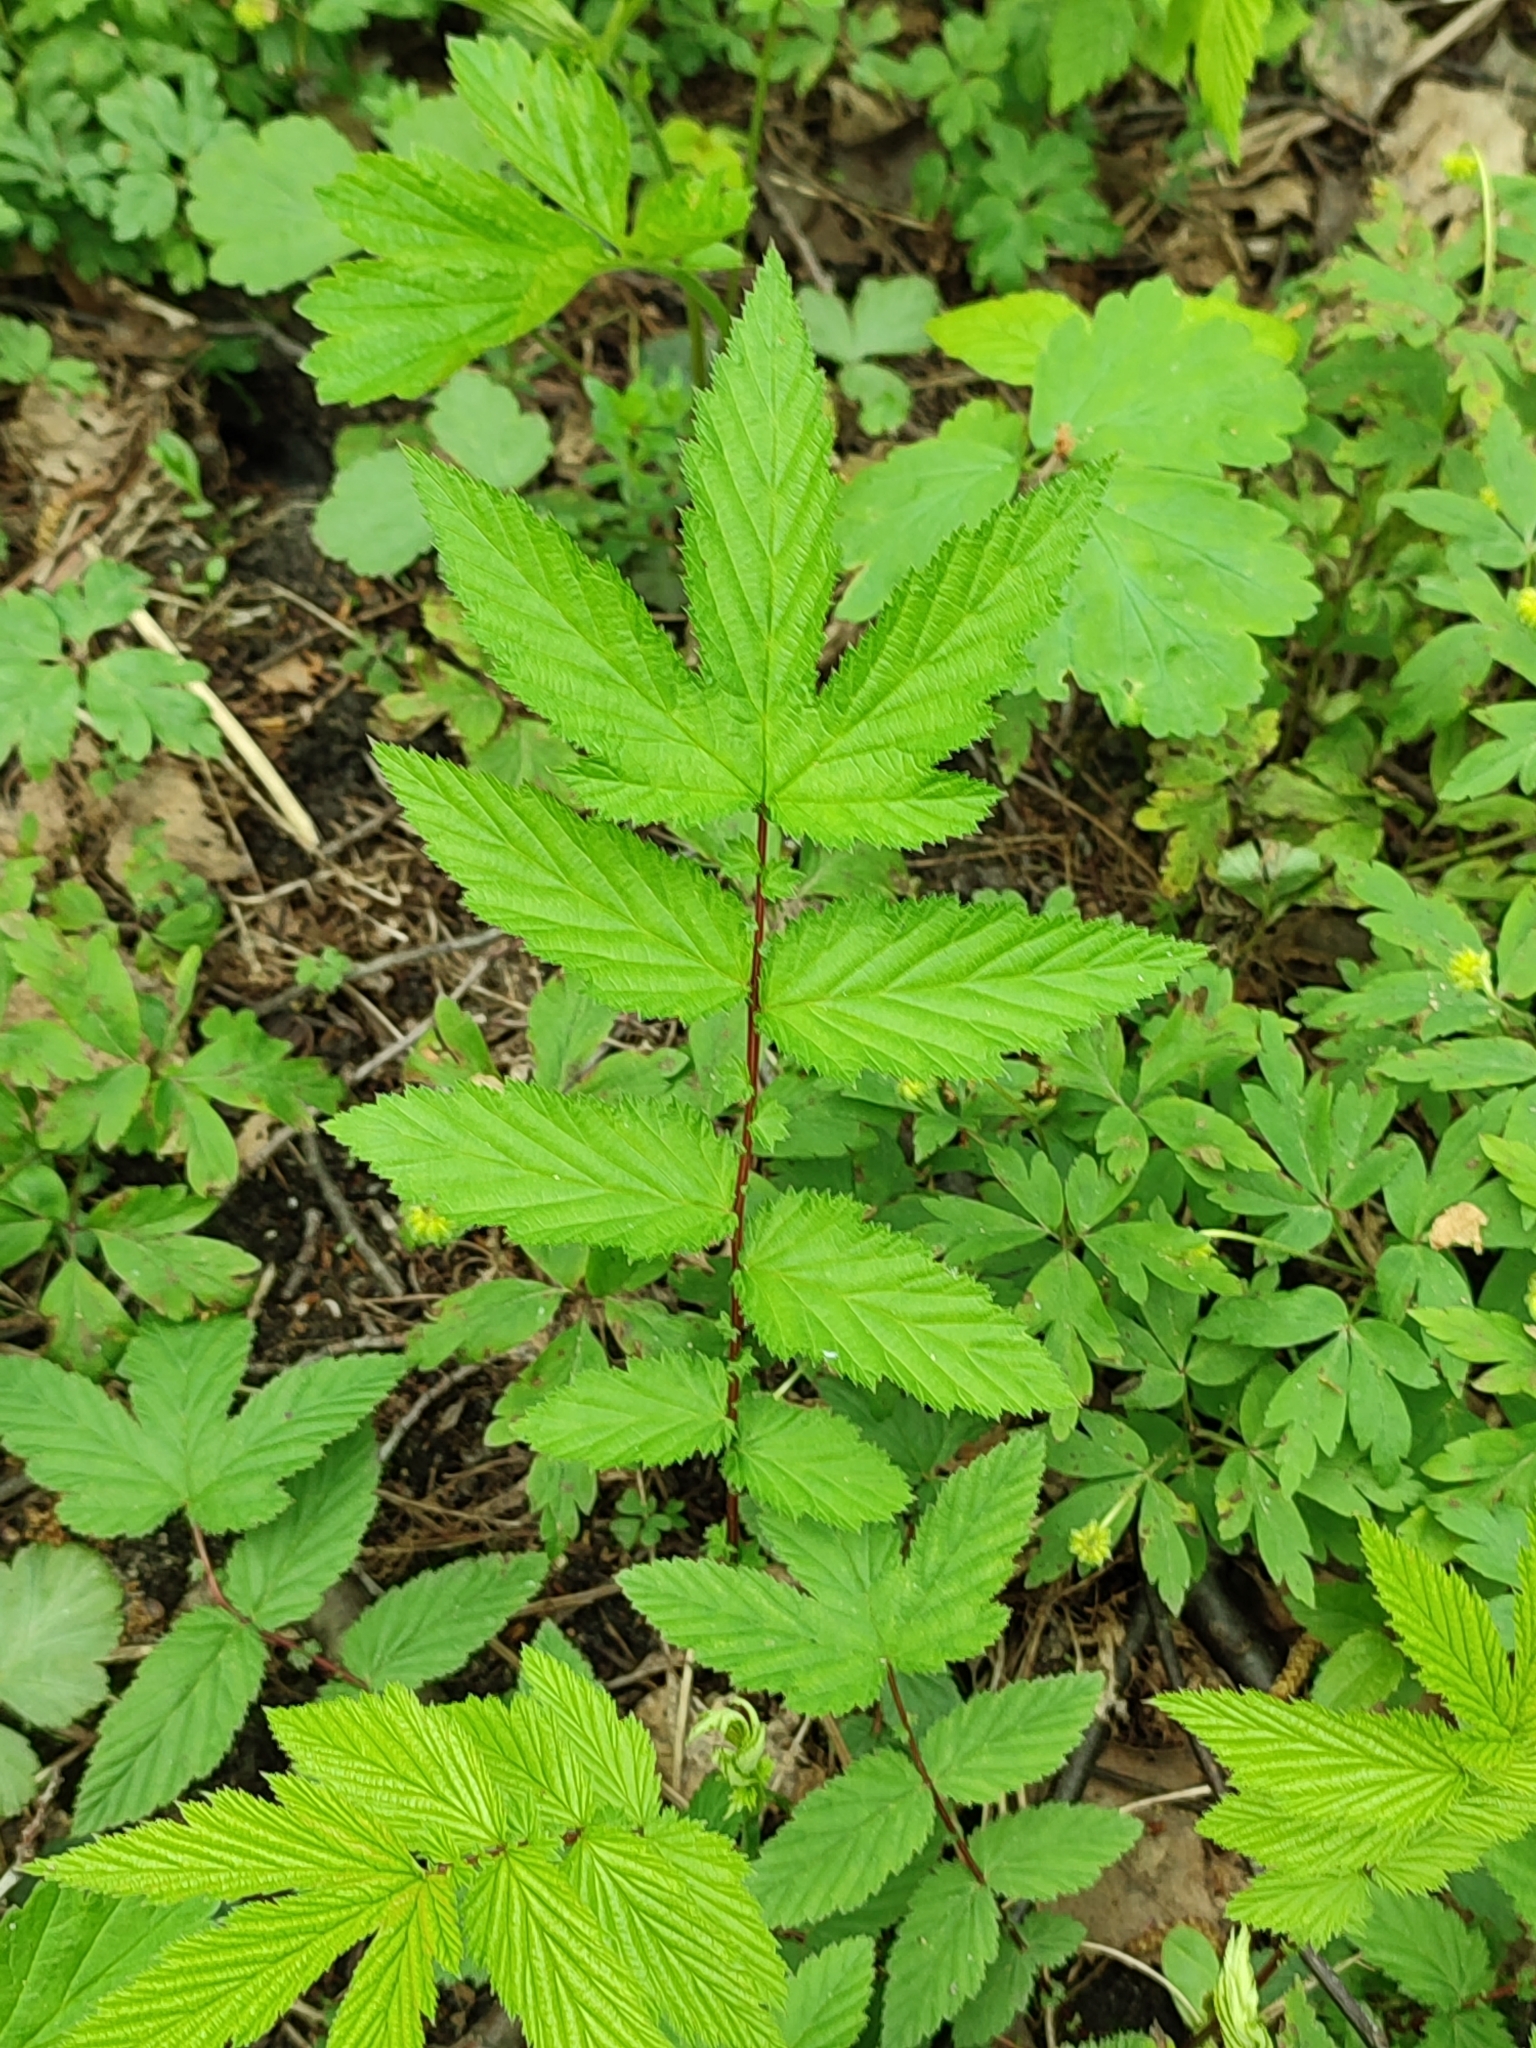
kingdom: Plantae
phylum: Tracheophyta
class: Magnoliopsida
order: Rosales
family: Rosaceae
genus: Filipendula
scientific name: Filipendula ulmaria
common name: Meadowsweet
